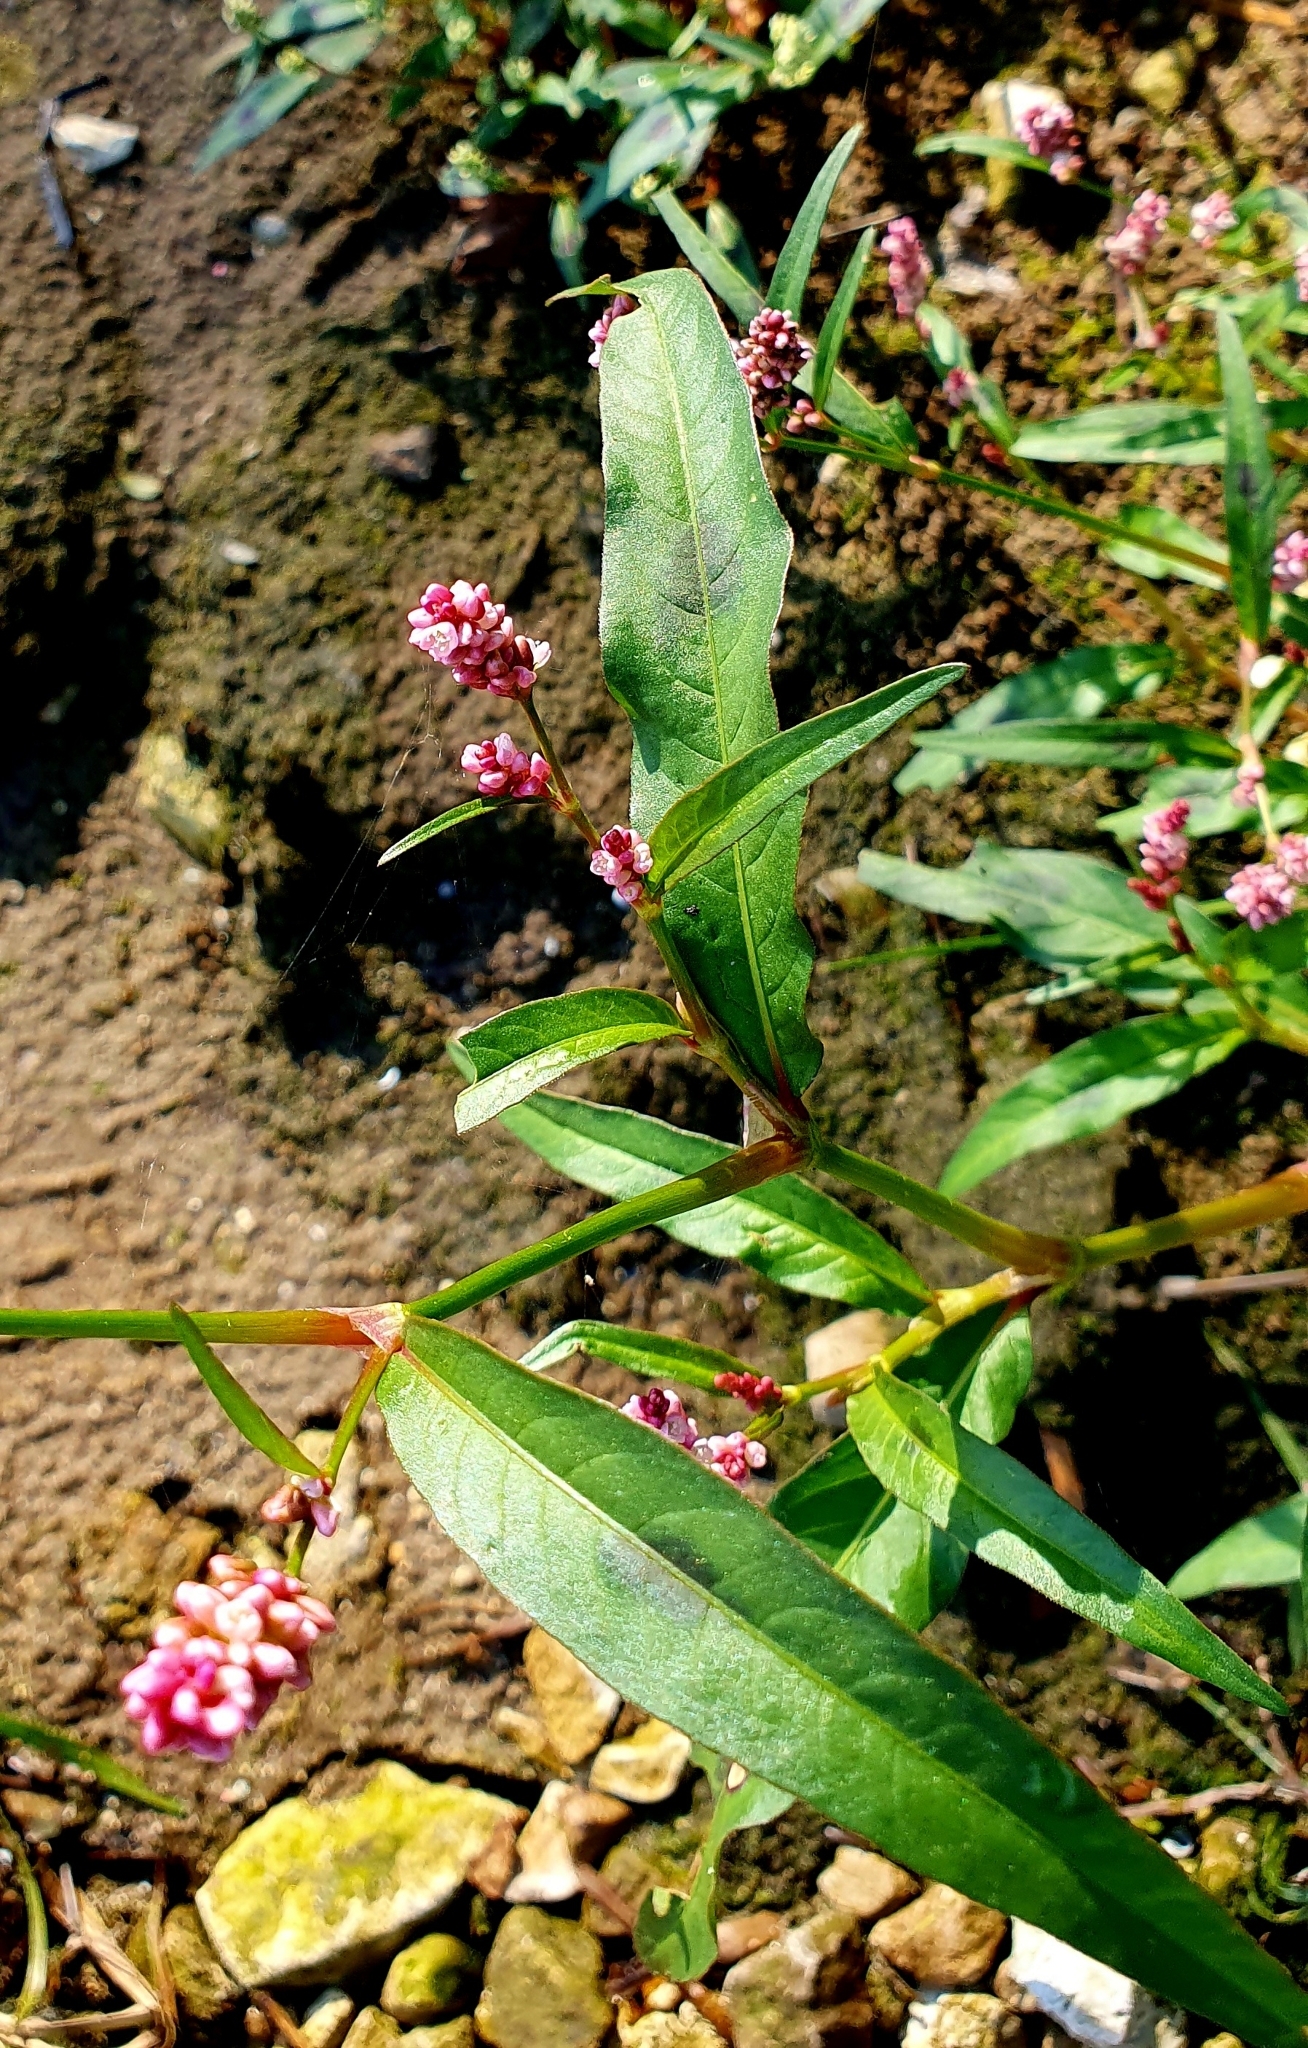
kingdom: Plantae
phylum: Tracheophyta
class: Magnoliopsida
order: Caryophyllales
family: Polygonaceae
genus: Persicaria
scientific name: Persicaria maculosa
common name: Redshank
